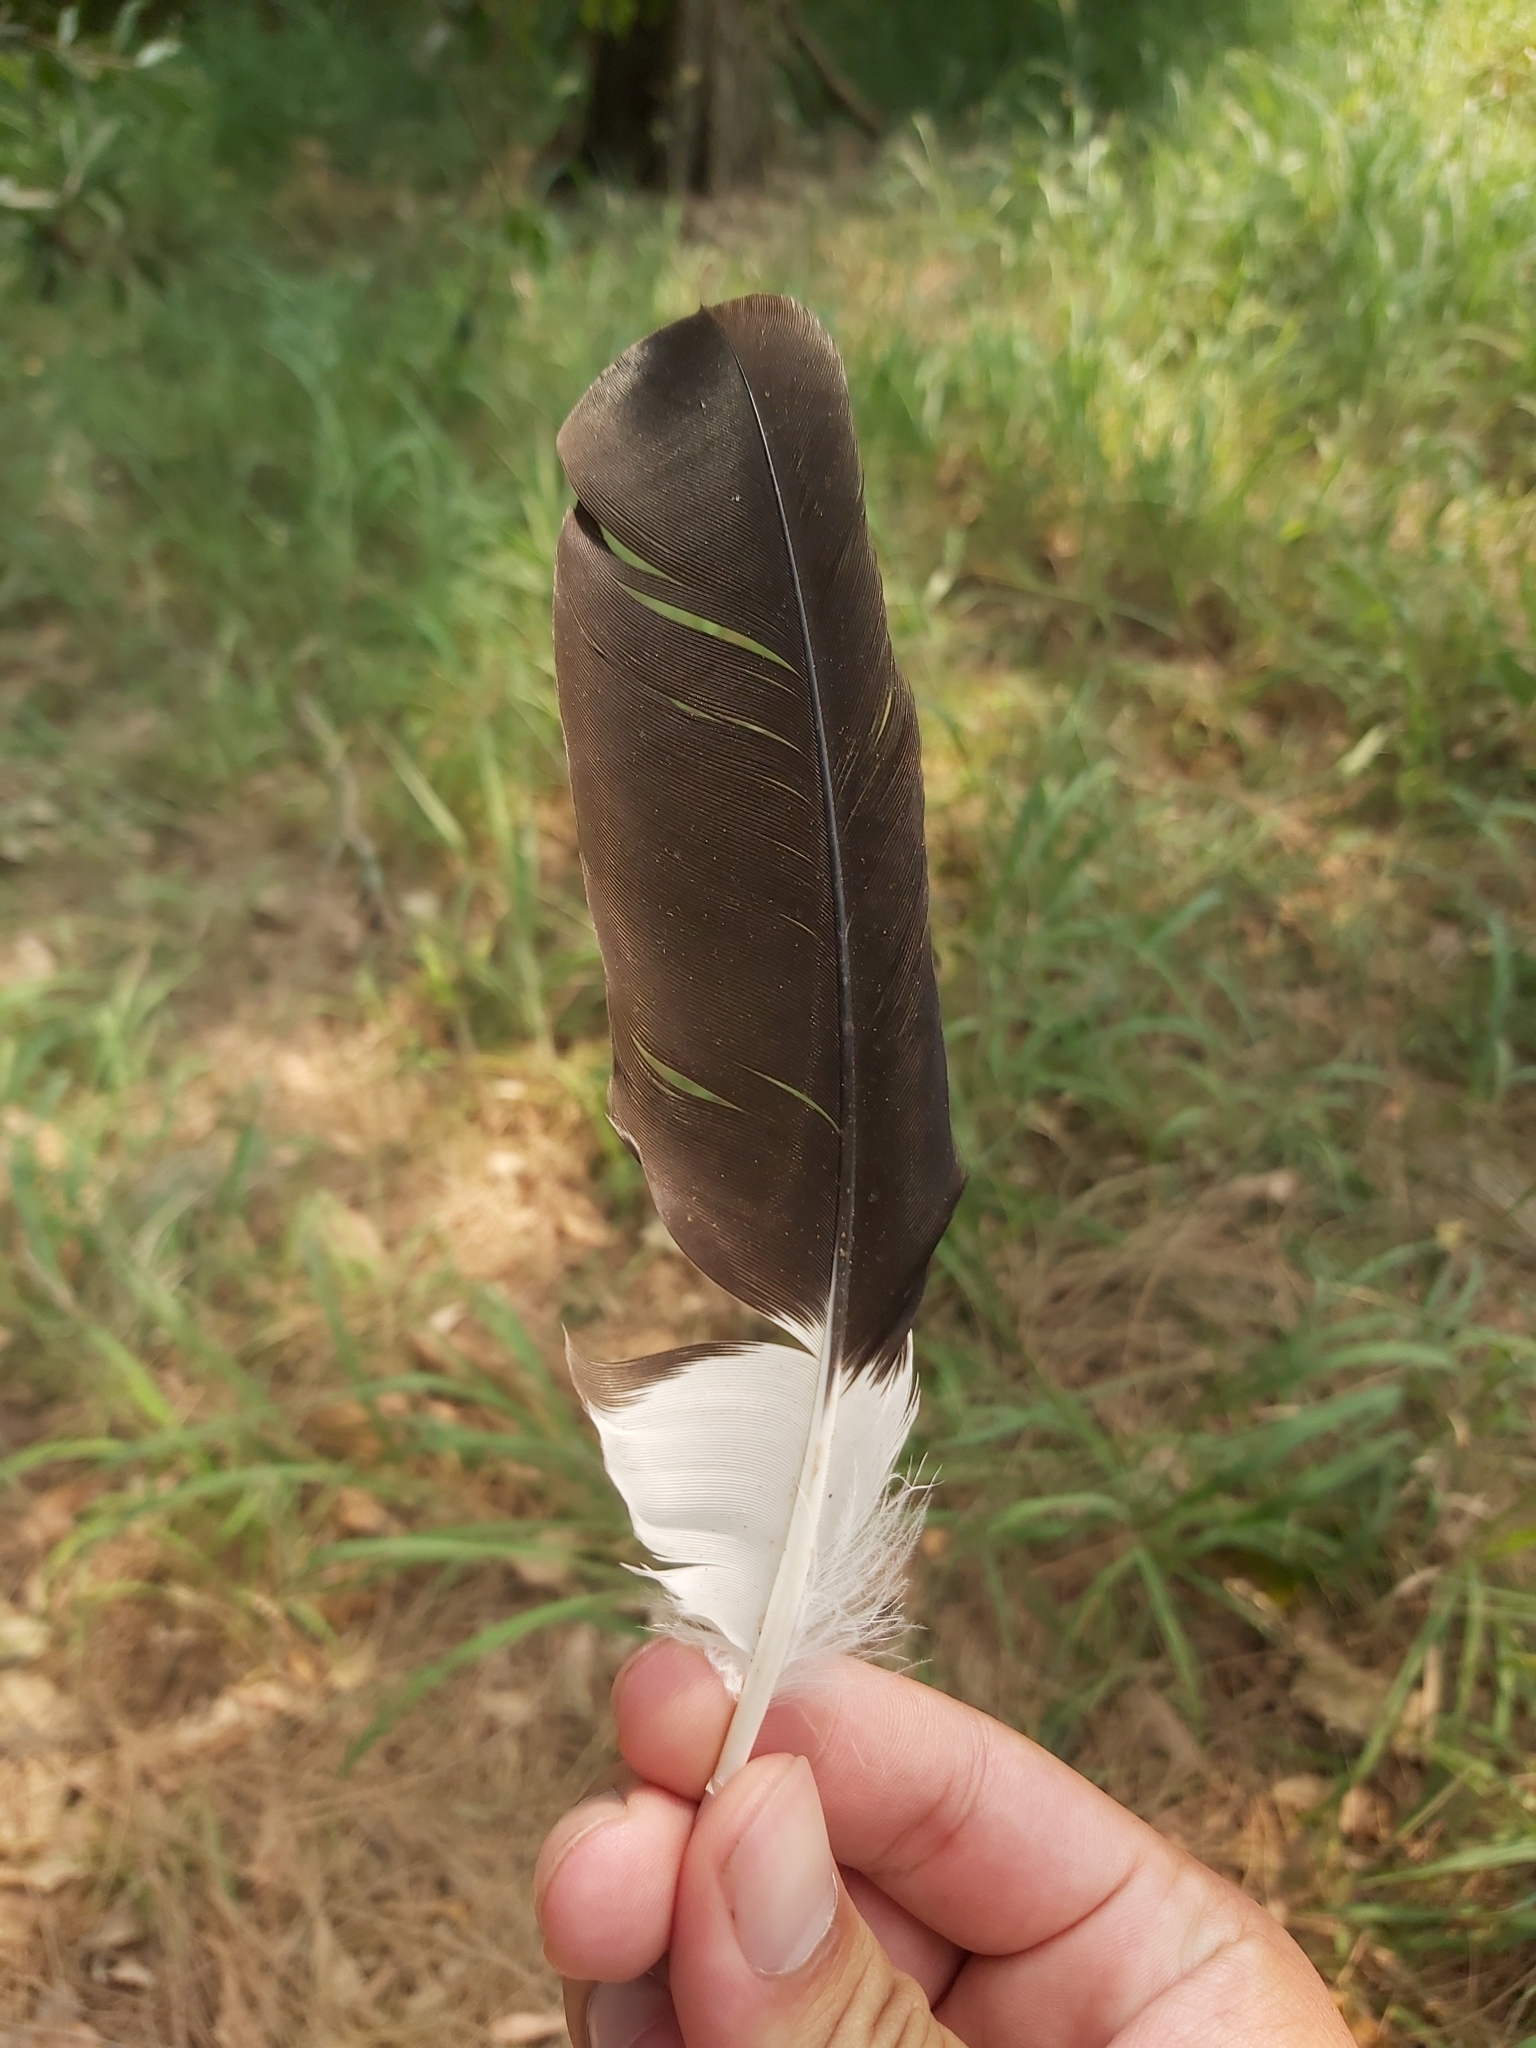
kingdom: Animalia
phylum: Chordata
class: Aves
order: Passeriformes
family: Cracticidae
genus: Strepera
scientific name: Strepera graculina
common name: Pied currawong
